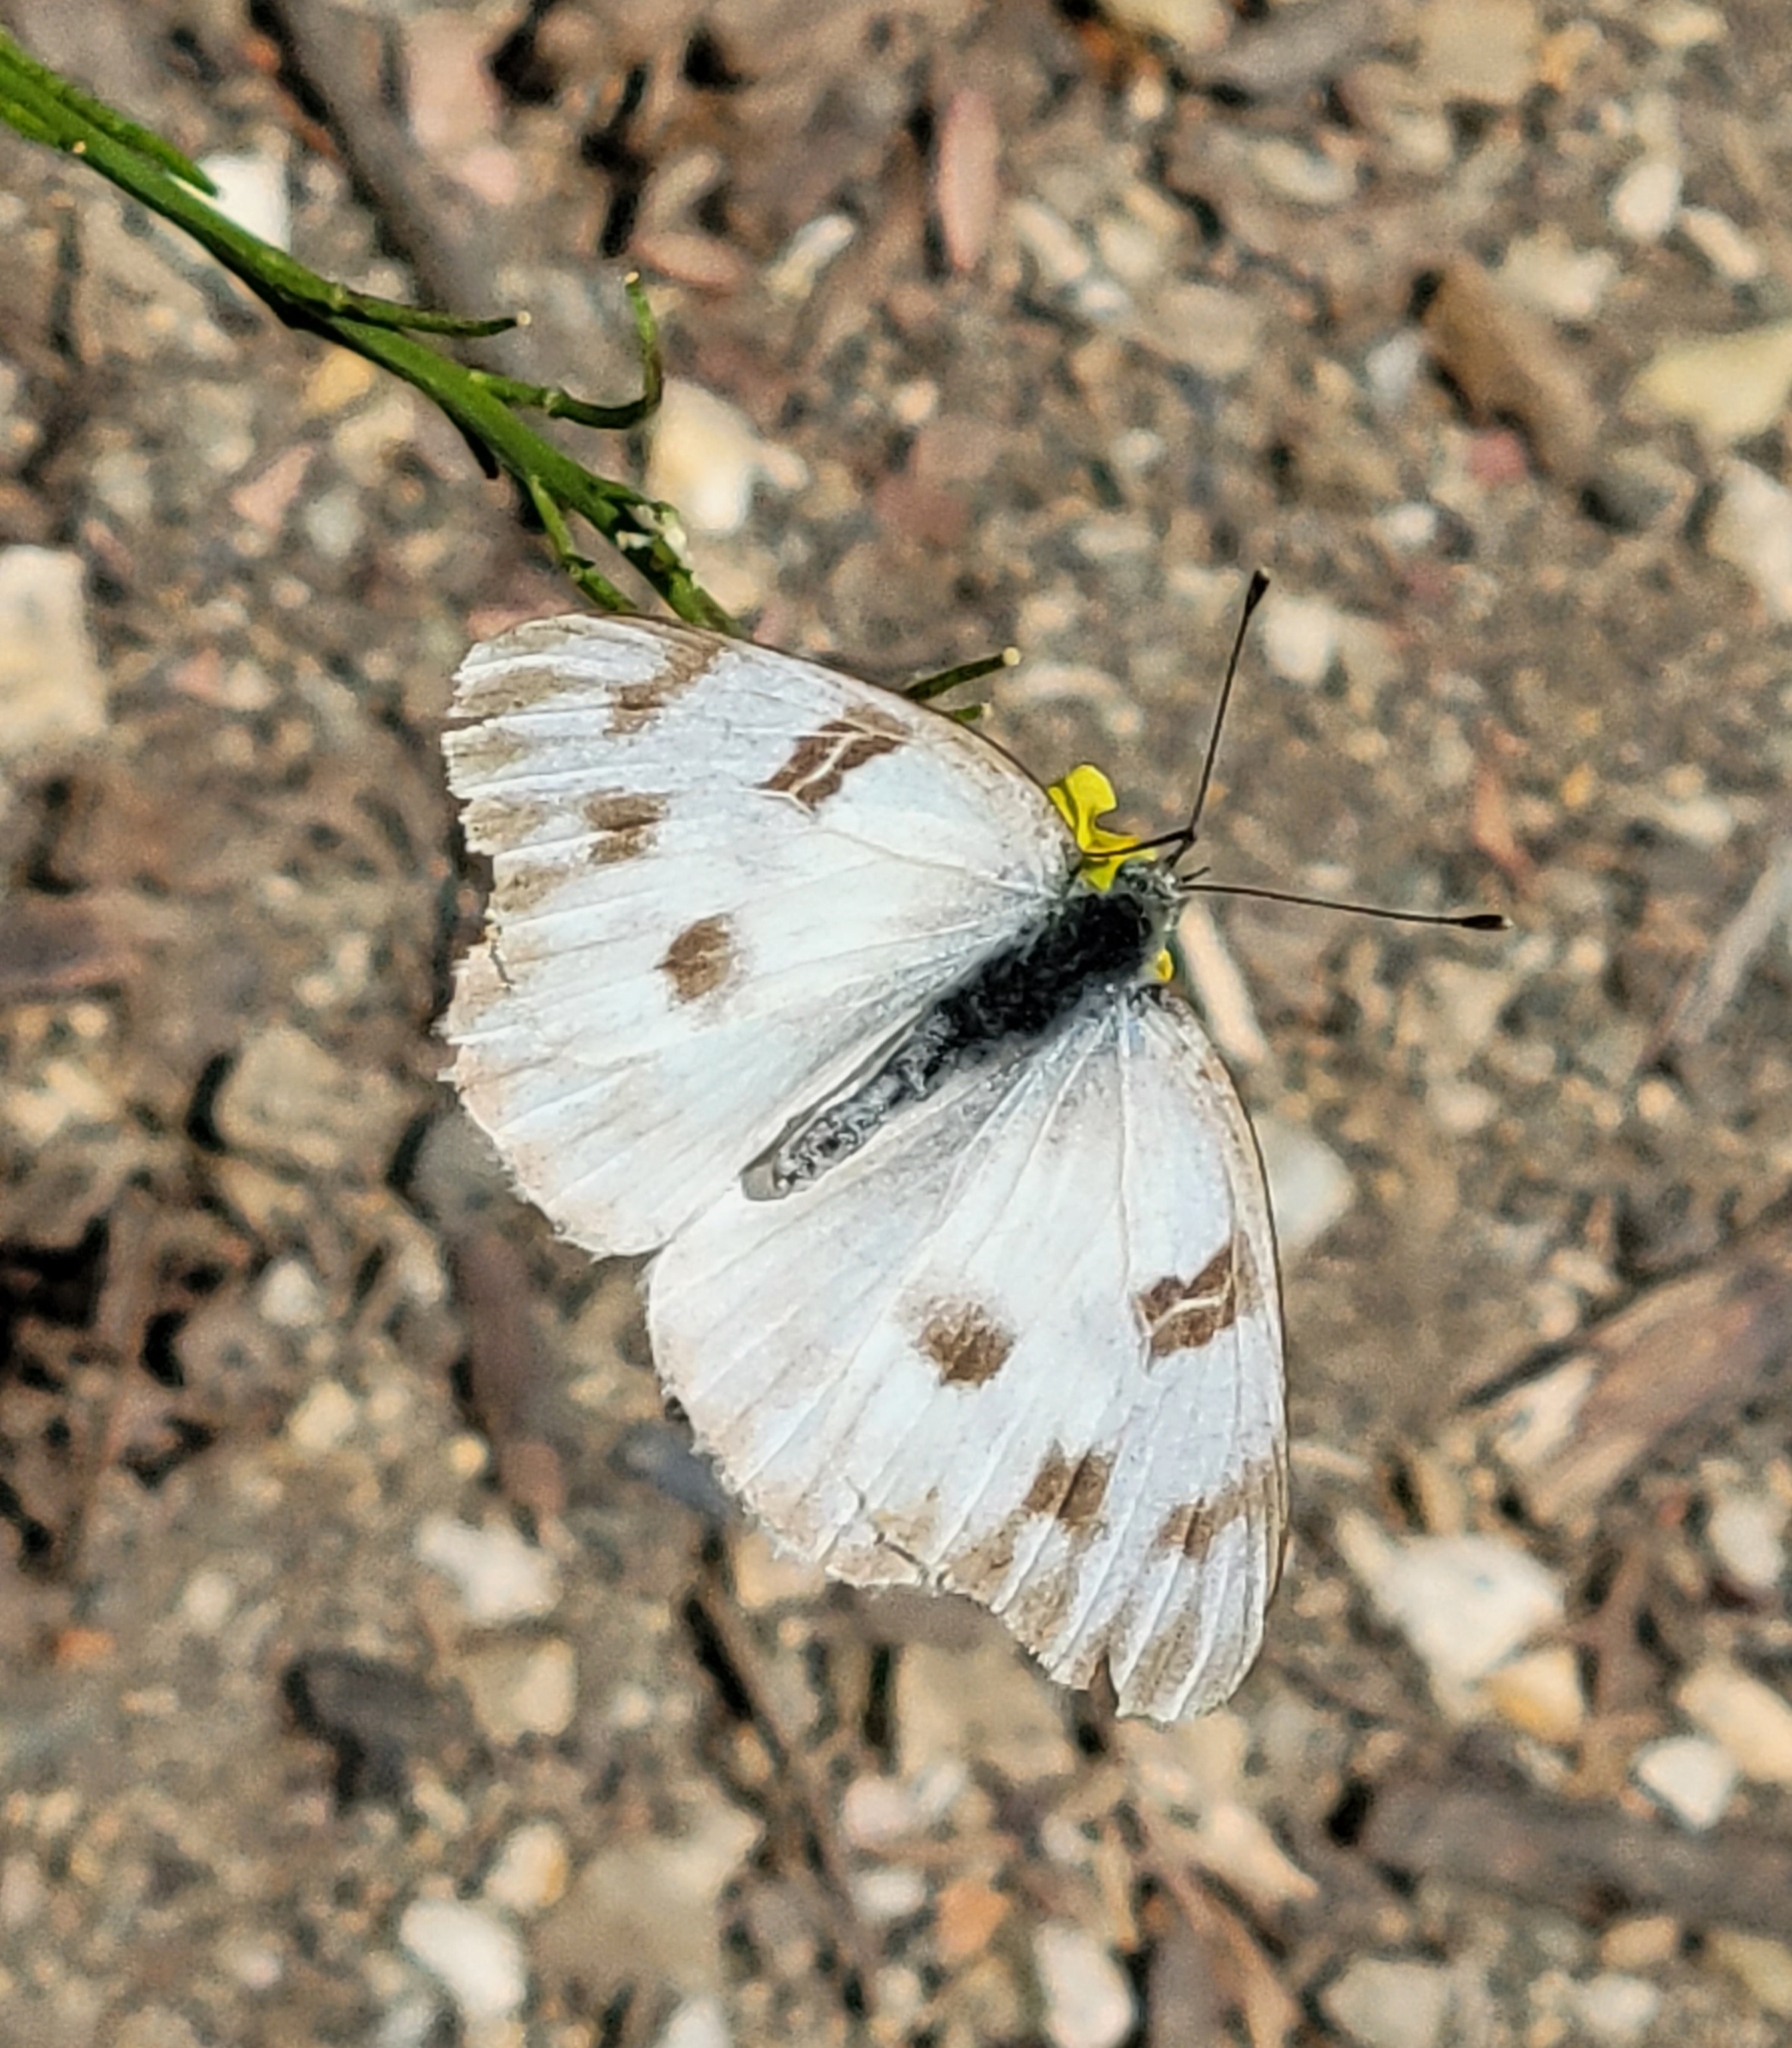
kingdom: Animalia
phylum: Arthropoda
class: Insecta
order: Lepidoptera
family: Pieridae
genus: Pontia
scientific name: Pontia protodice
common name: Checkered white
